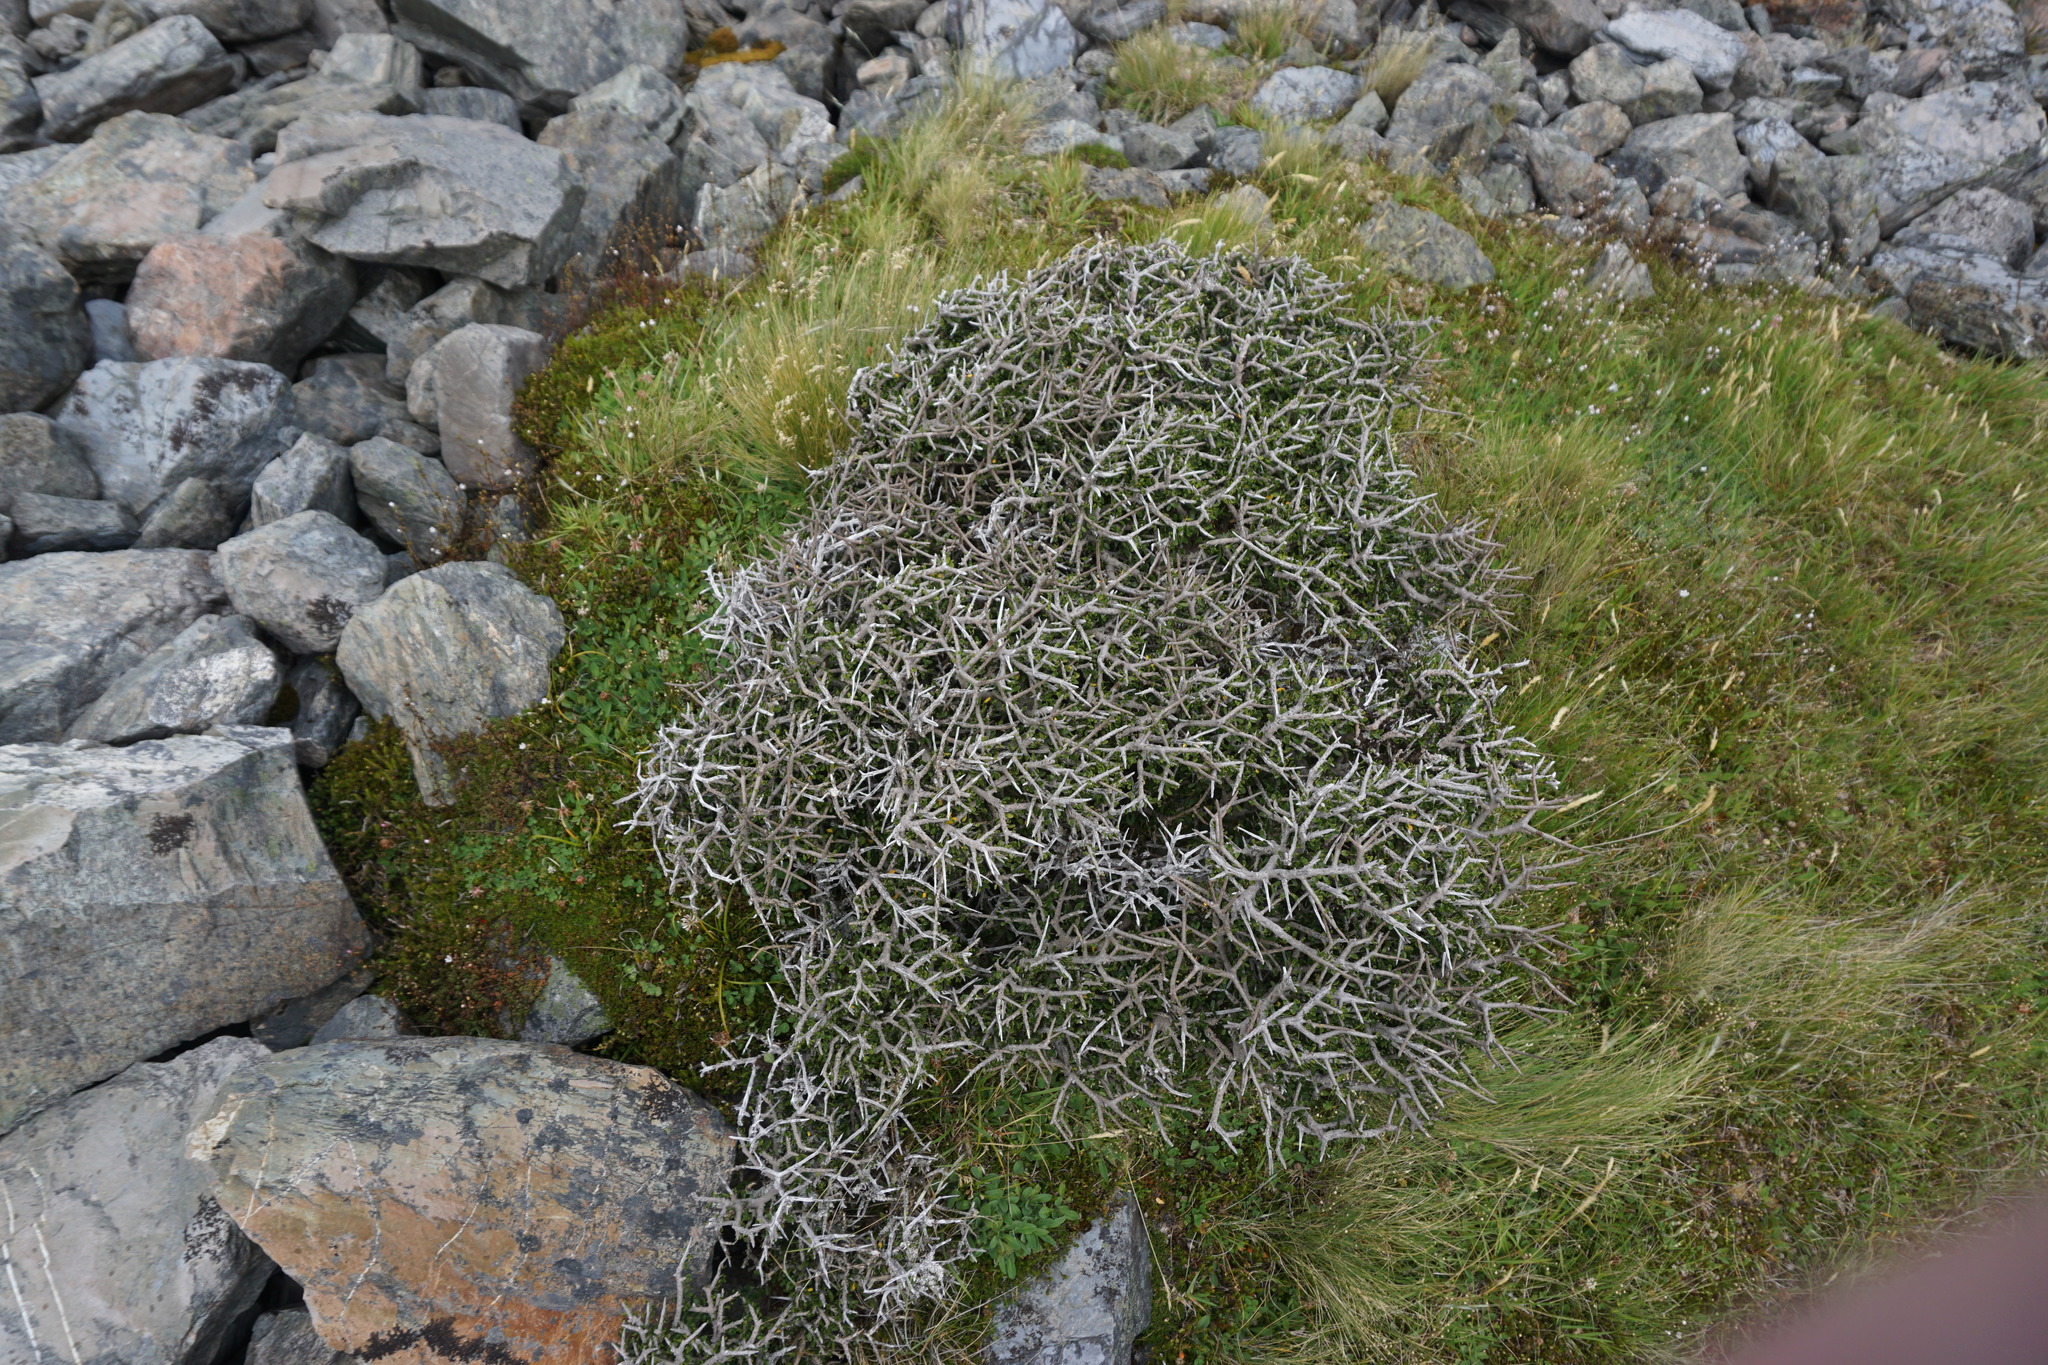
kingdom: Plantae
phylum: Tracheophyta
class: Magnoliopsida
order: Malpighiales
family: Violaceae
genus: Melicytus
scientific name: Melicytus alpinus
